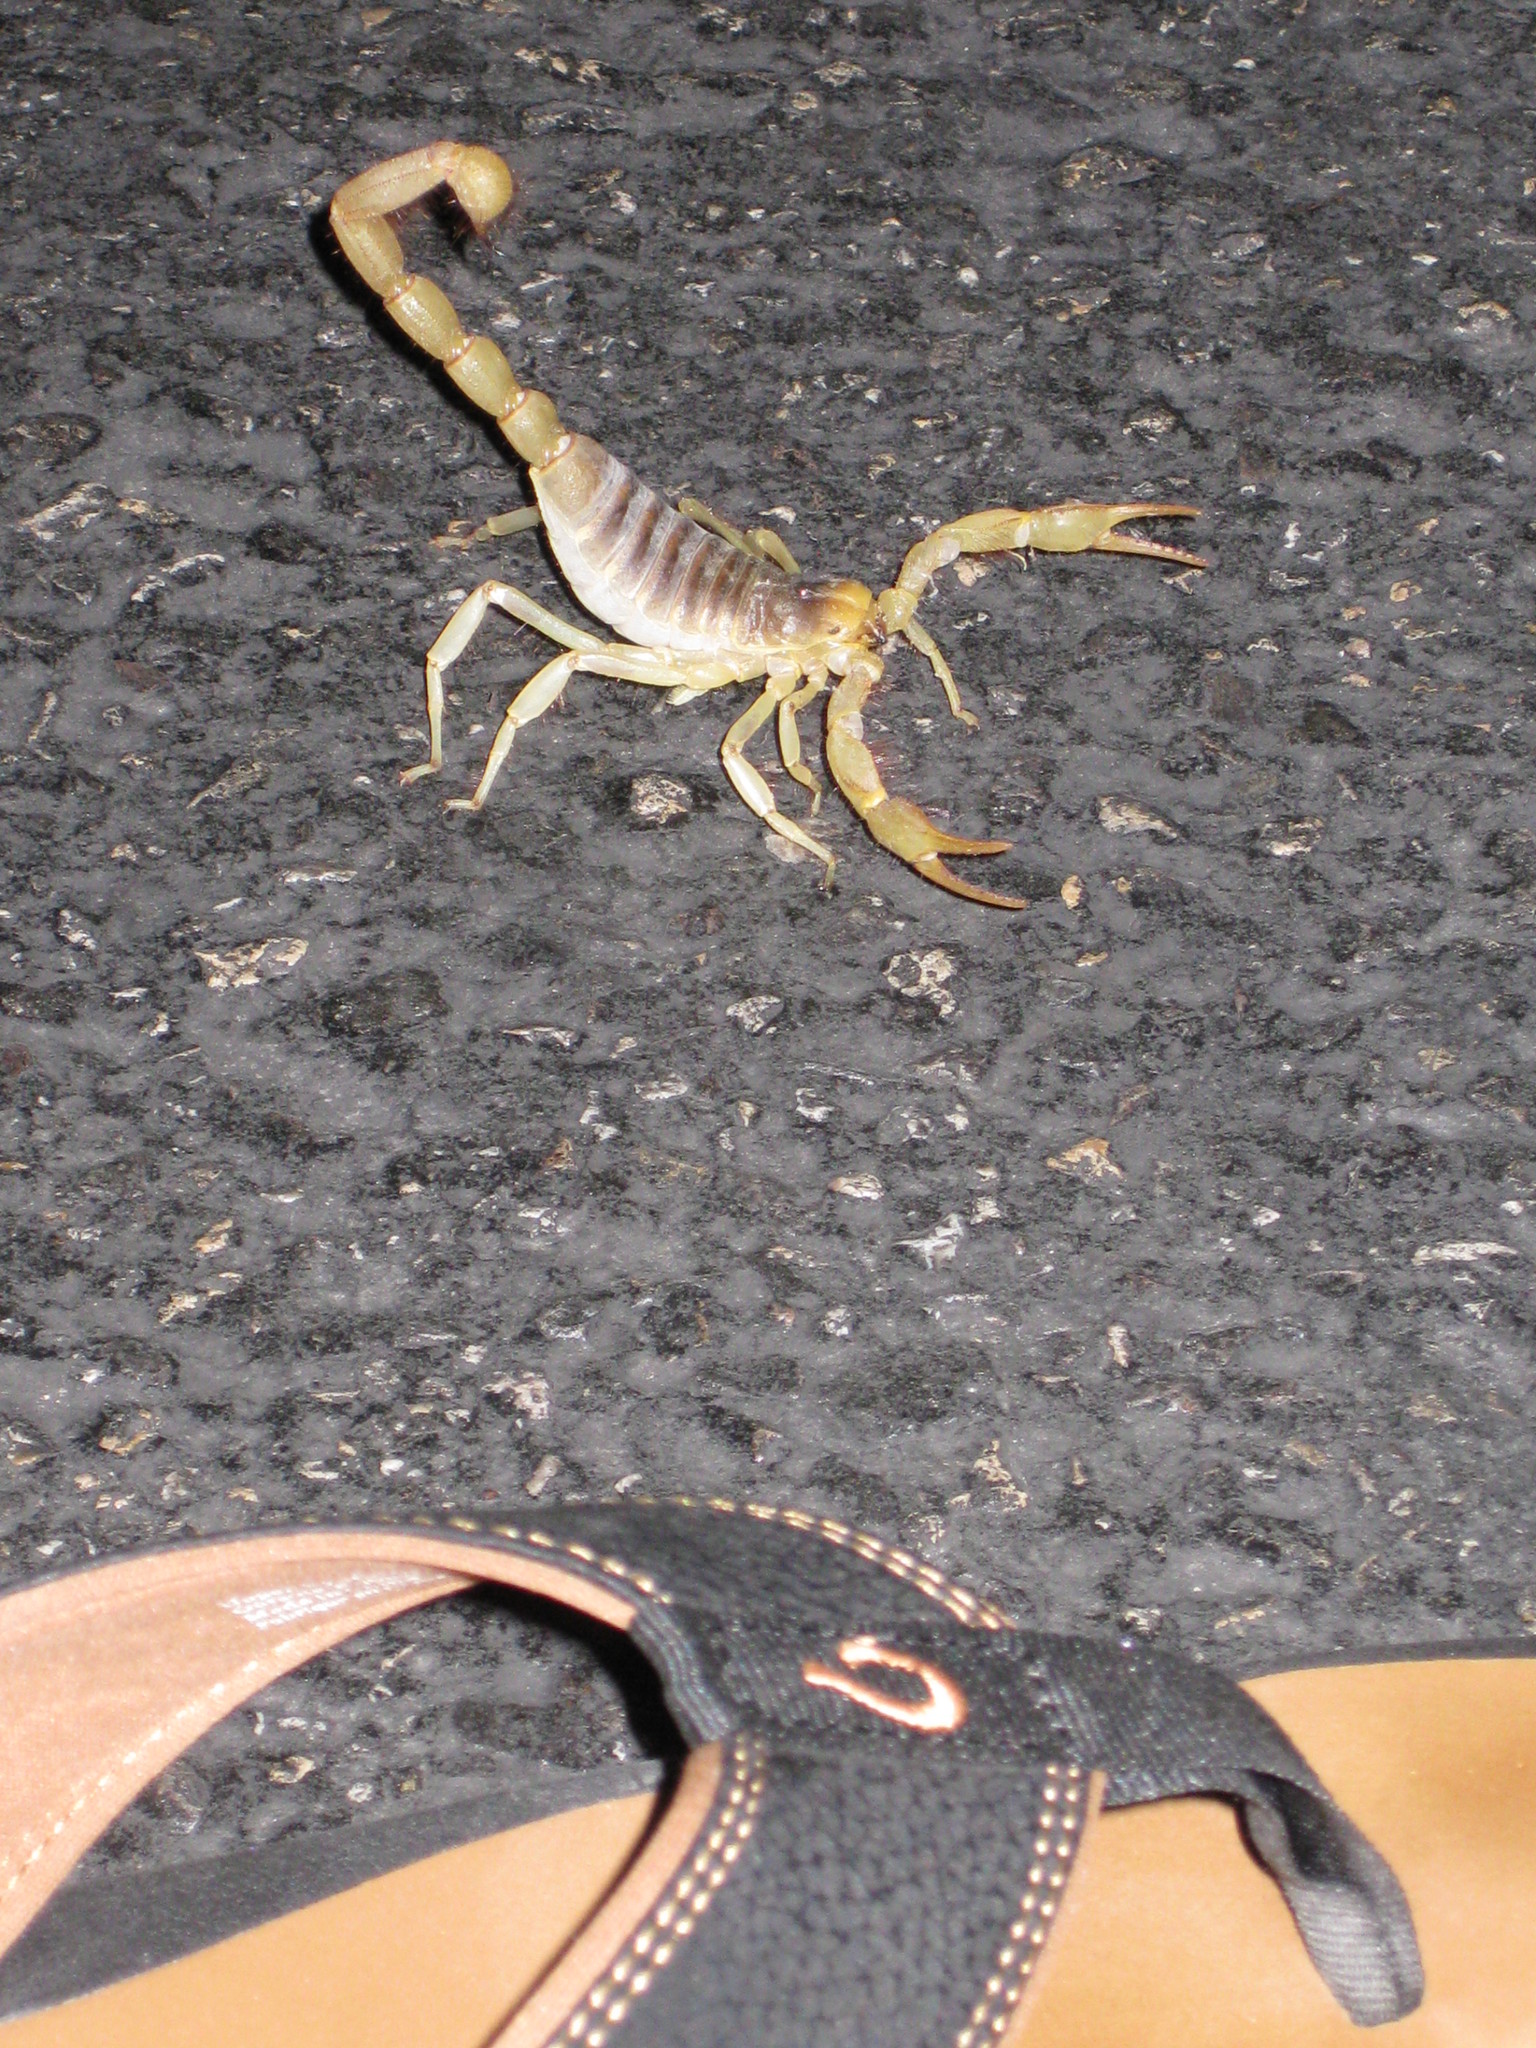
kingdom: Animalia
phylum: Arthropoda
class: Arachnida
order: Scorpiones
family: Hadruridae
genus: Hadrurus
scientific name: Hadrurus arizonensis
